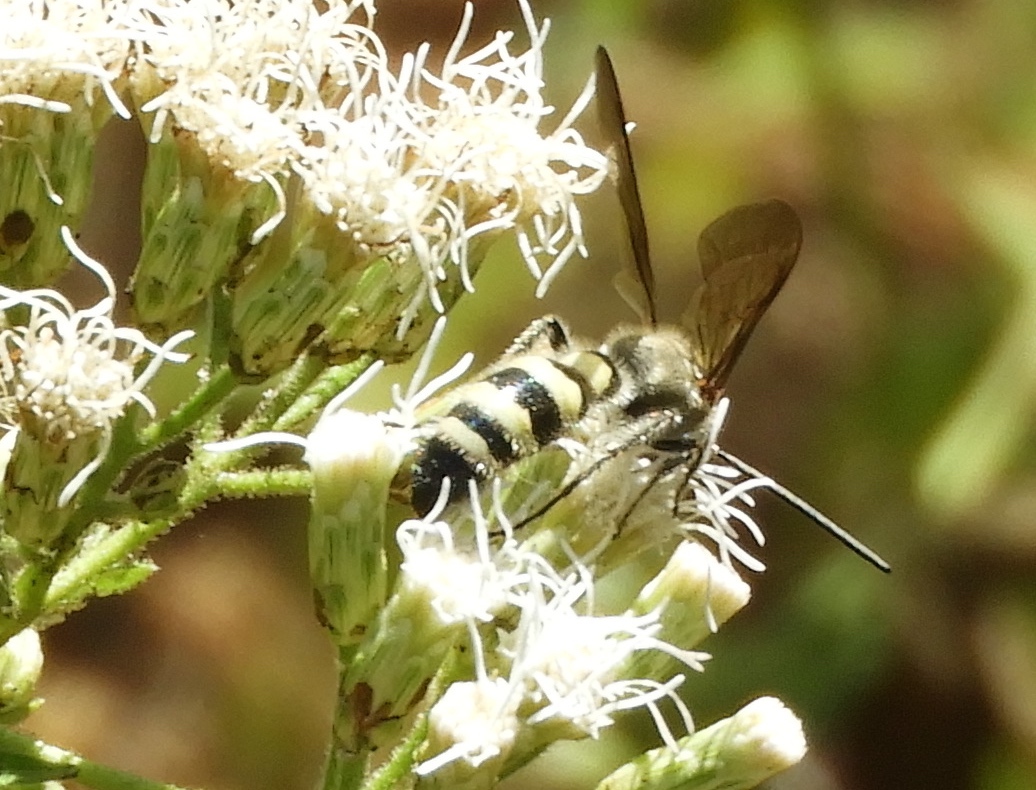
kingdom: Animalia
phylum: Arthropoda
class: Insecta
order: Hymenoptera
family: Scoliidae
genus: Dielis
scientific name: Dielis tolteca
